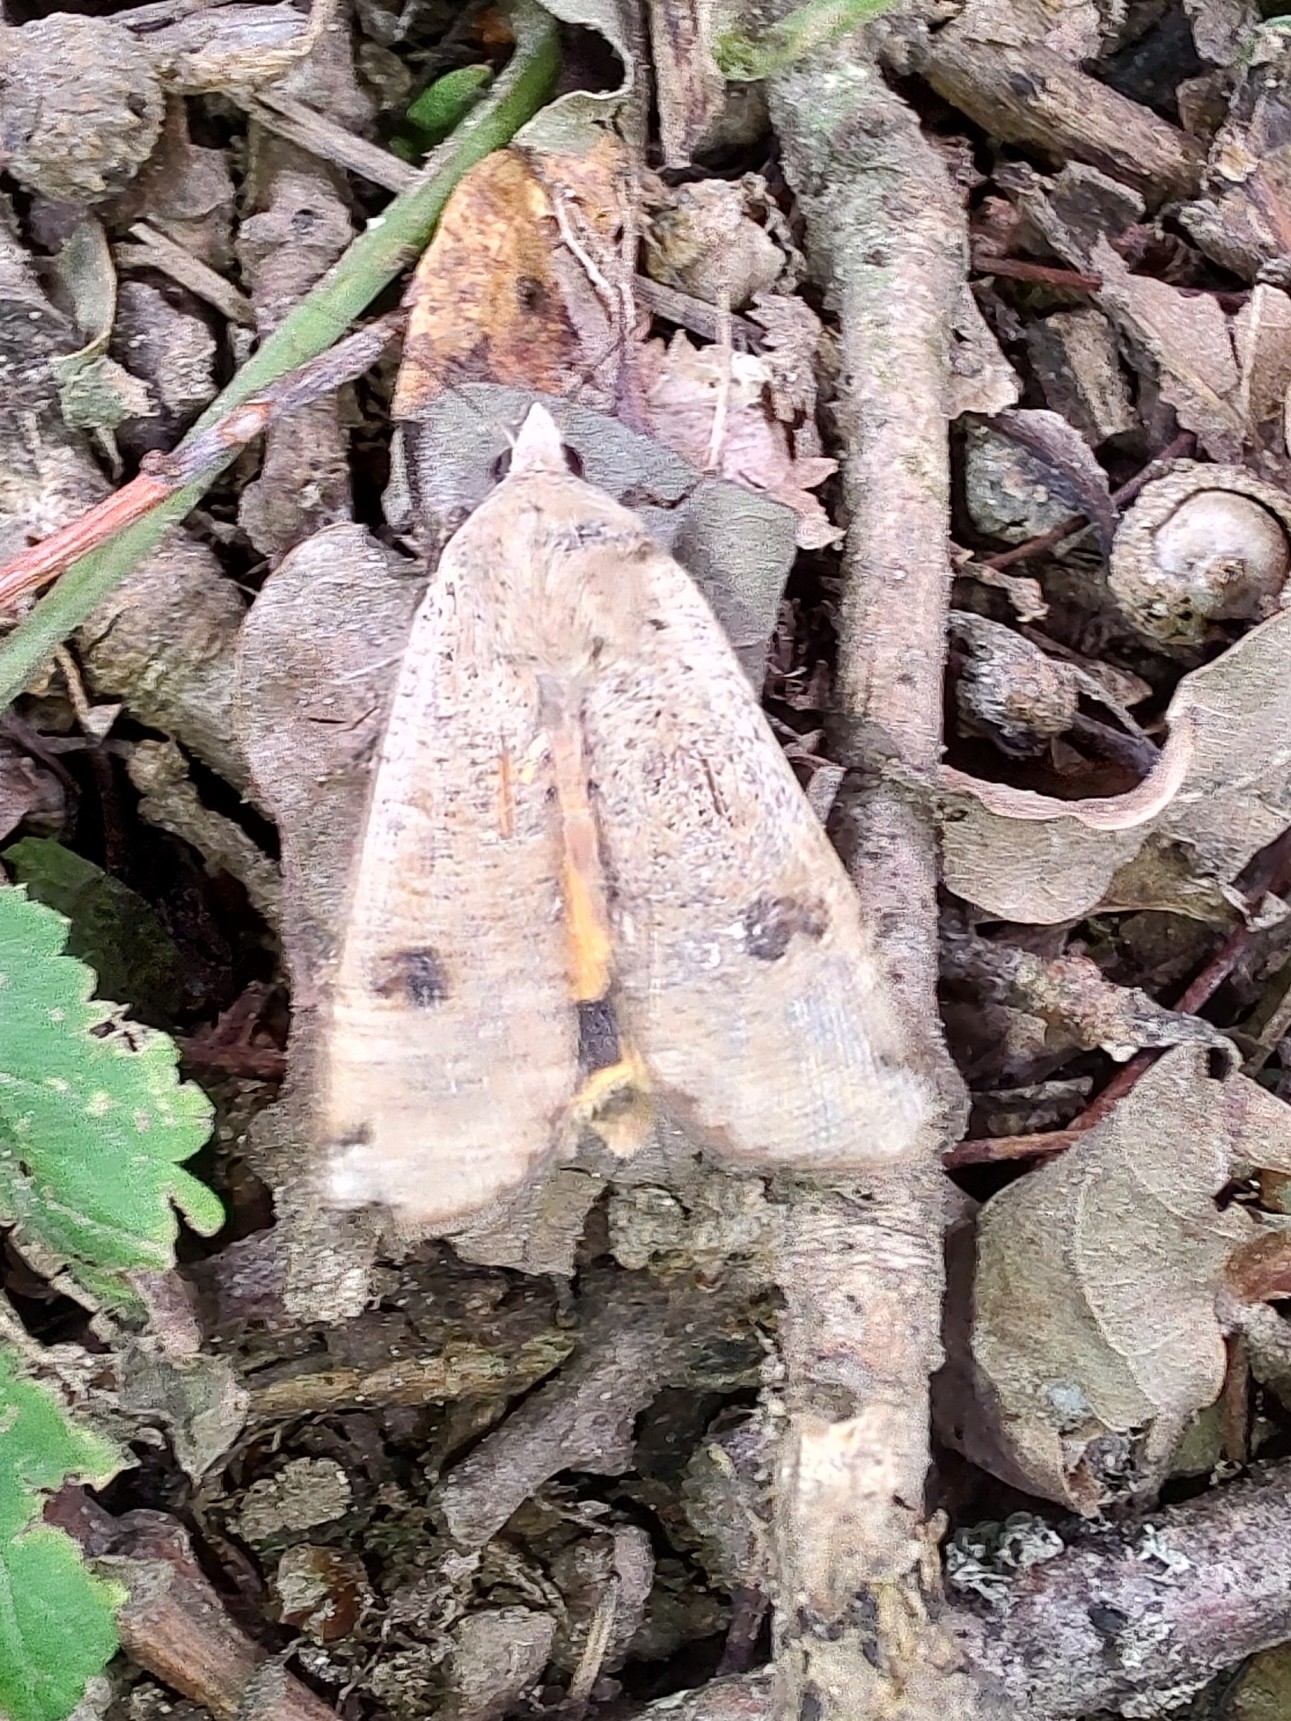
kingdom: Animalia
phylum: Arthropoda
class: Insecta
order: Lepidoptera
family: Noctuidae
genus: Noctua
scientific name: Noctua pronuba
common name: Large yellow underwing
